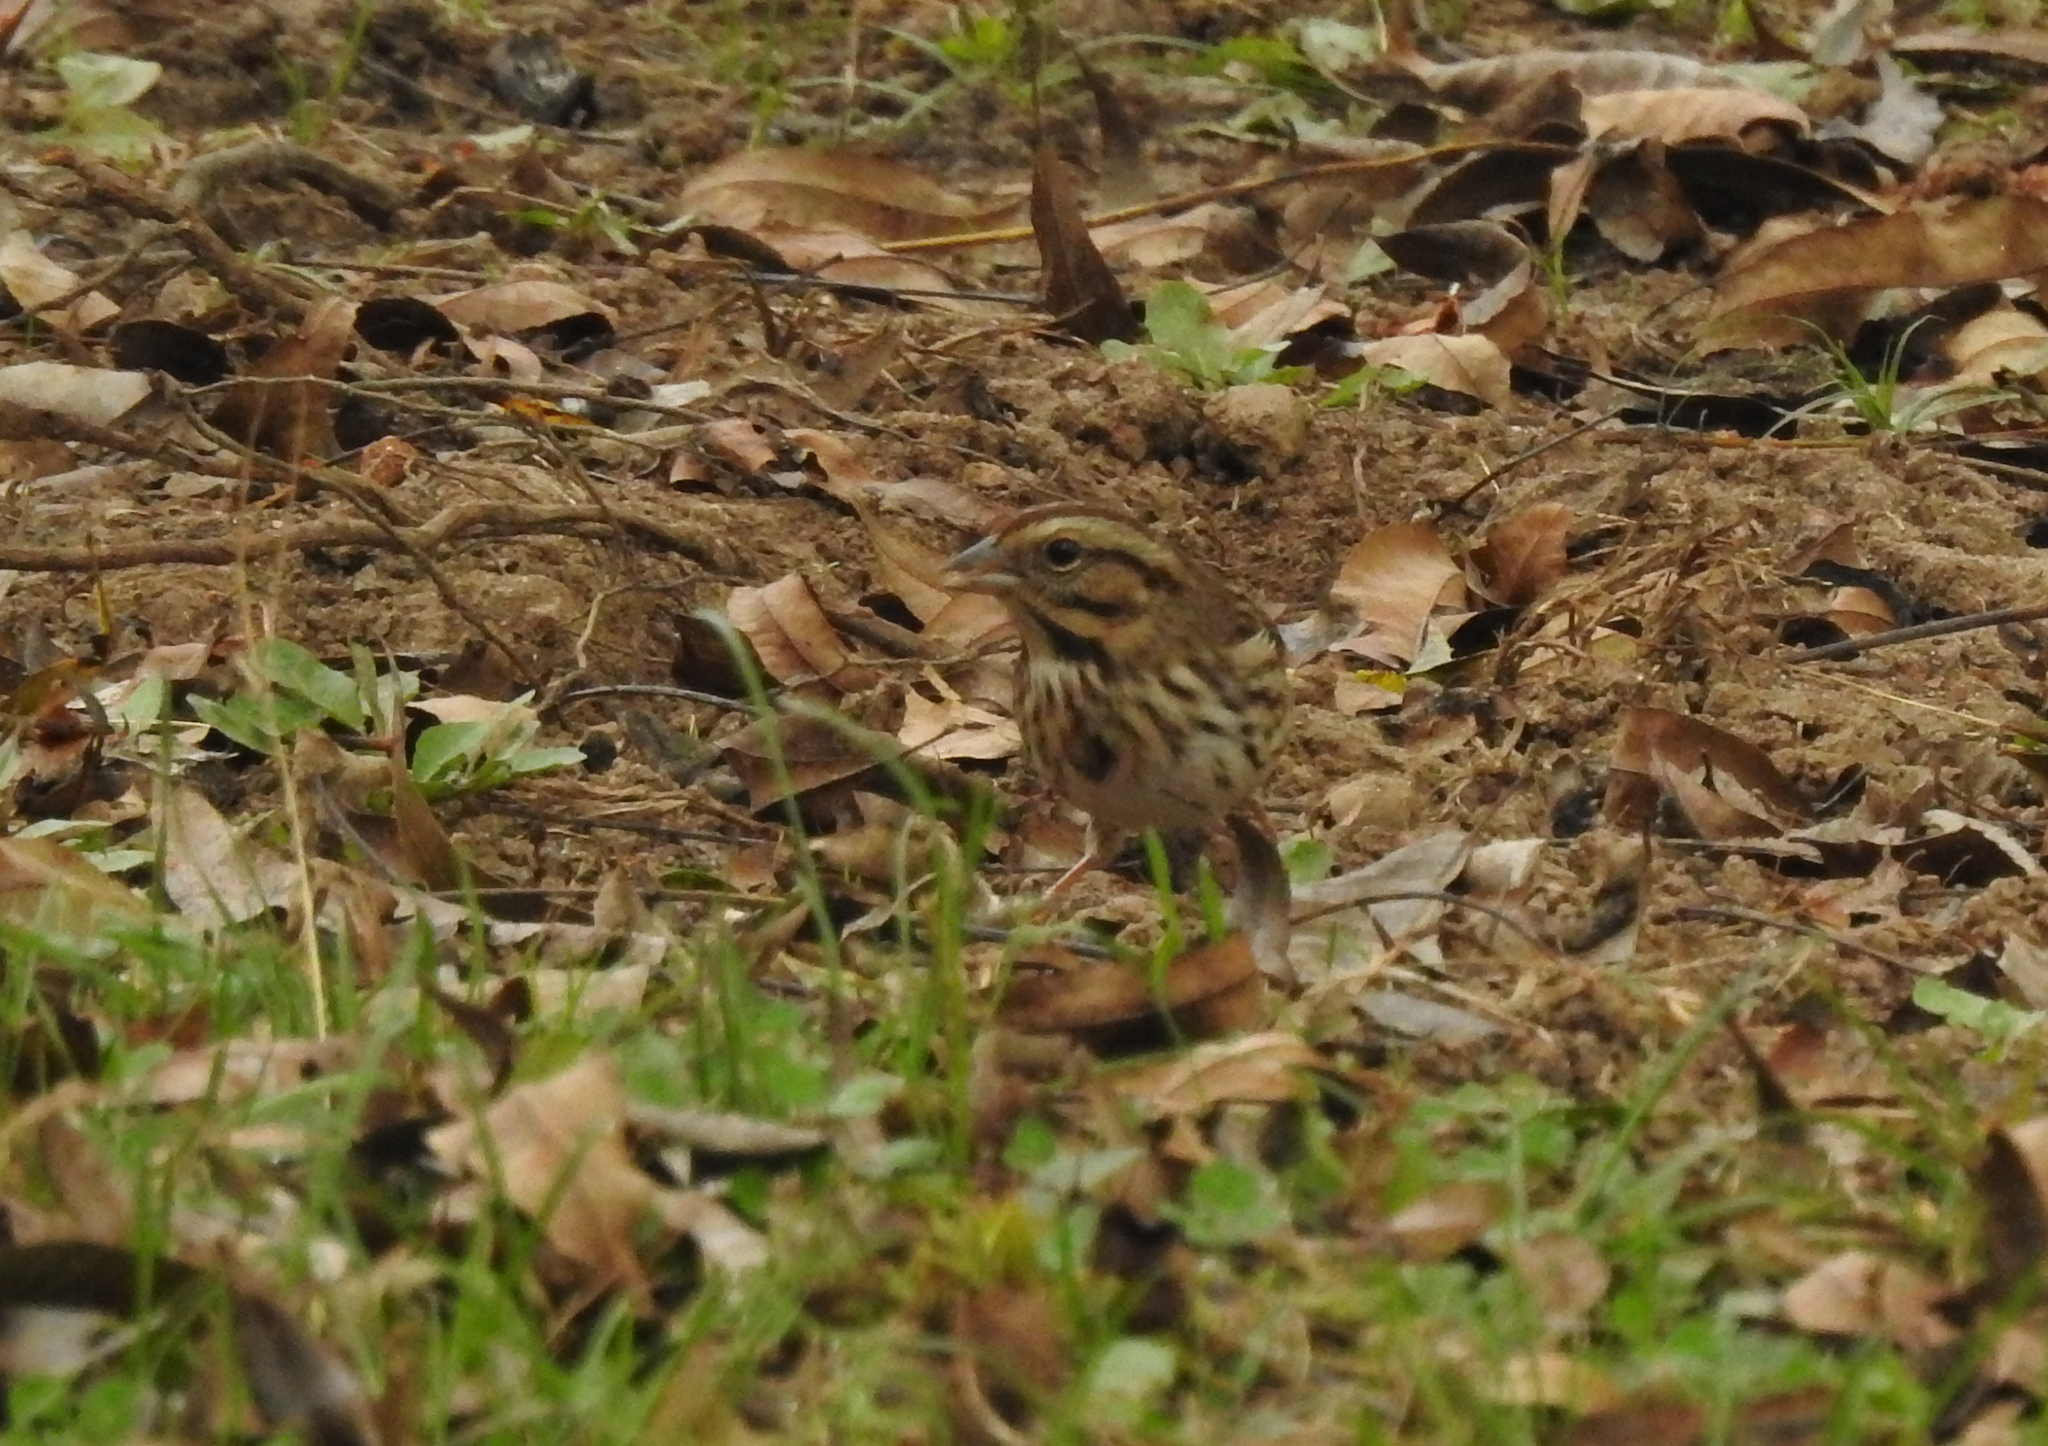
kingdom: Animalia
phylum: Chordata
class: Aves
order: Passeriformes
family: Passerellidae
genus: Melospiza
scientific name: Melospiza melodia
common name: Song sparrow
